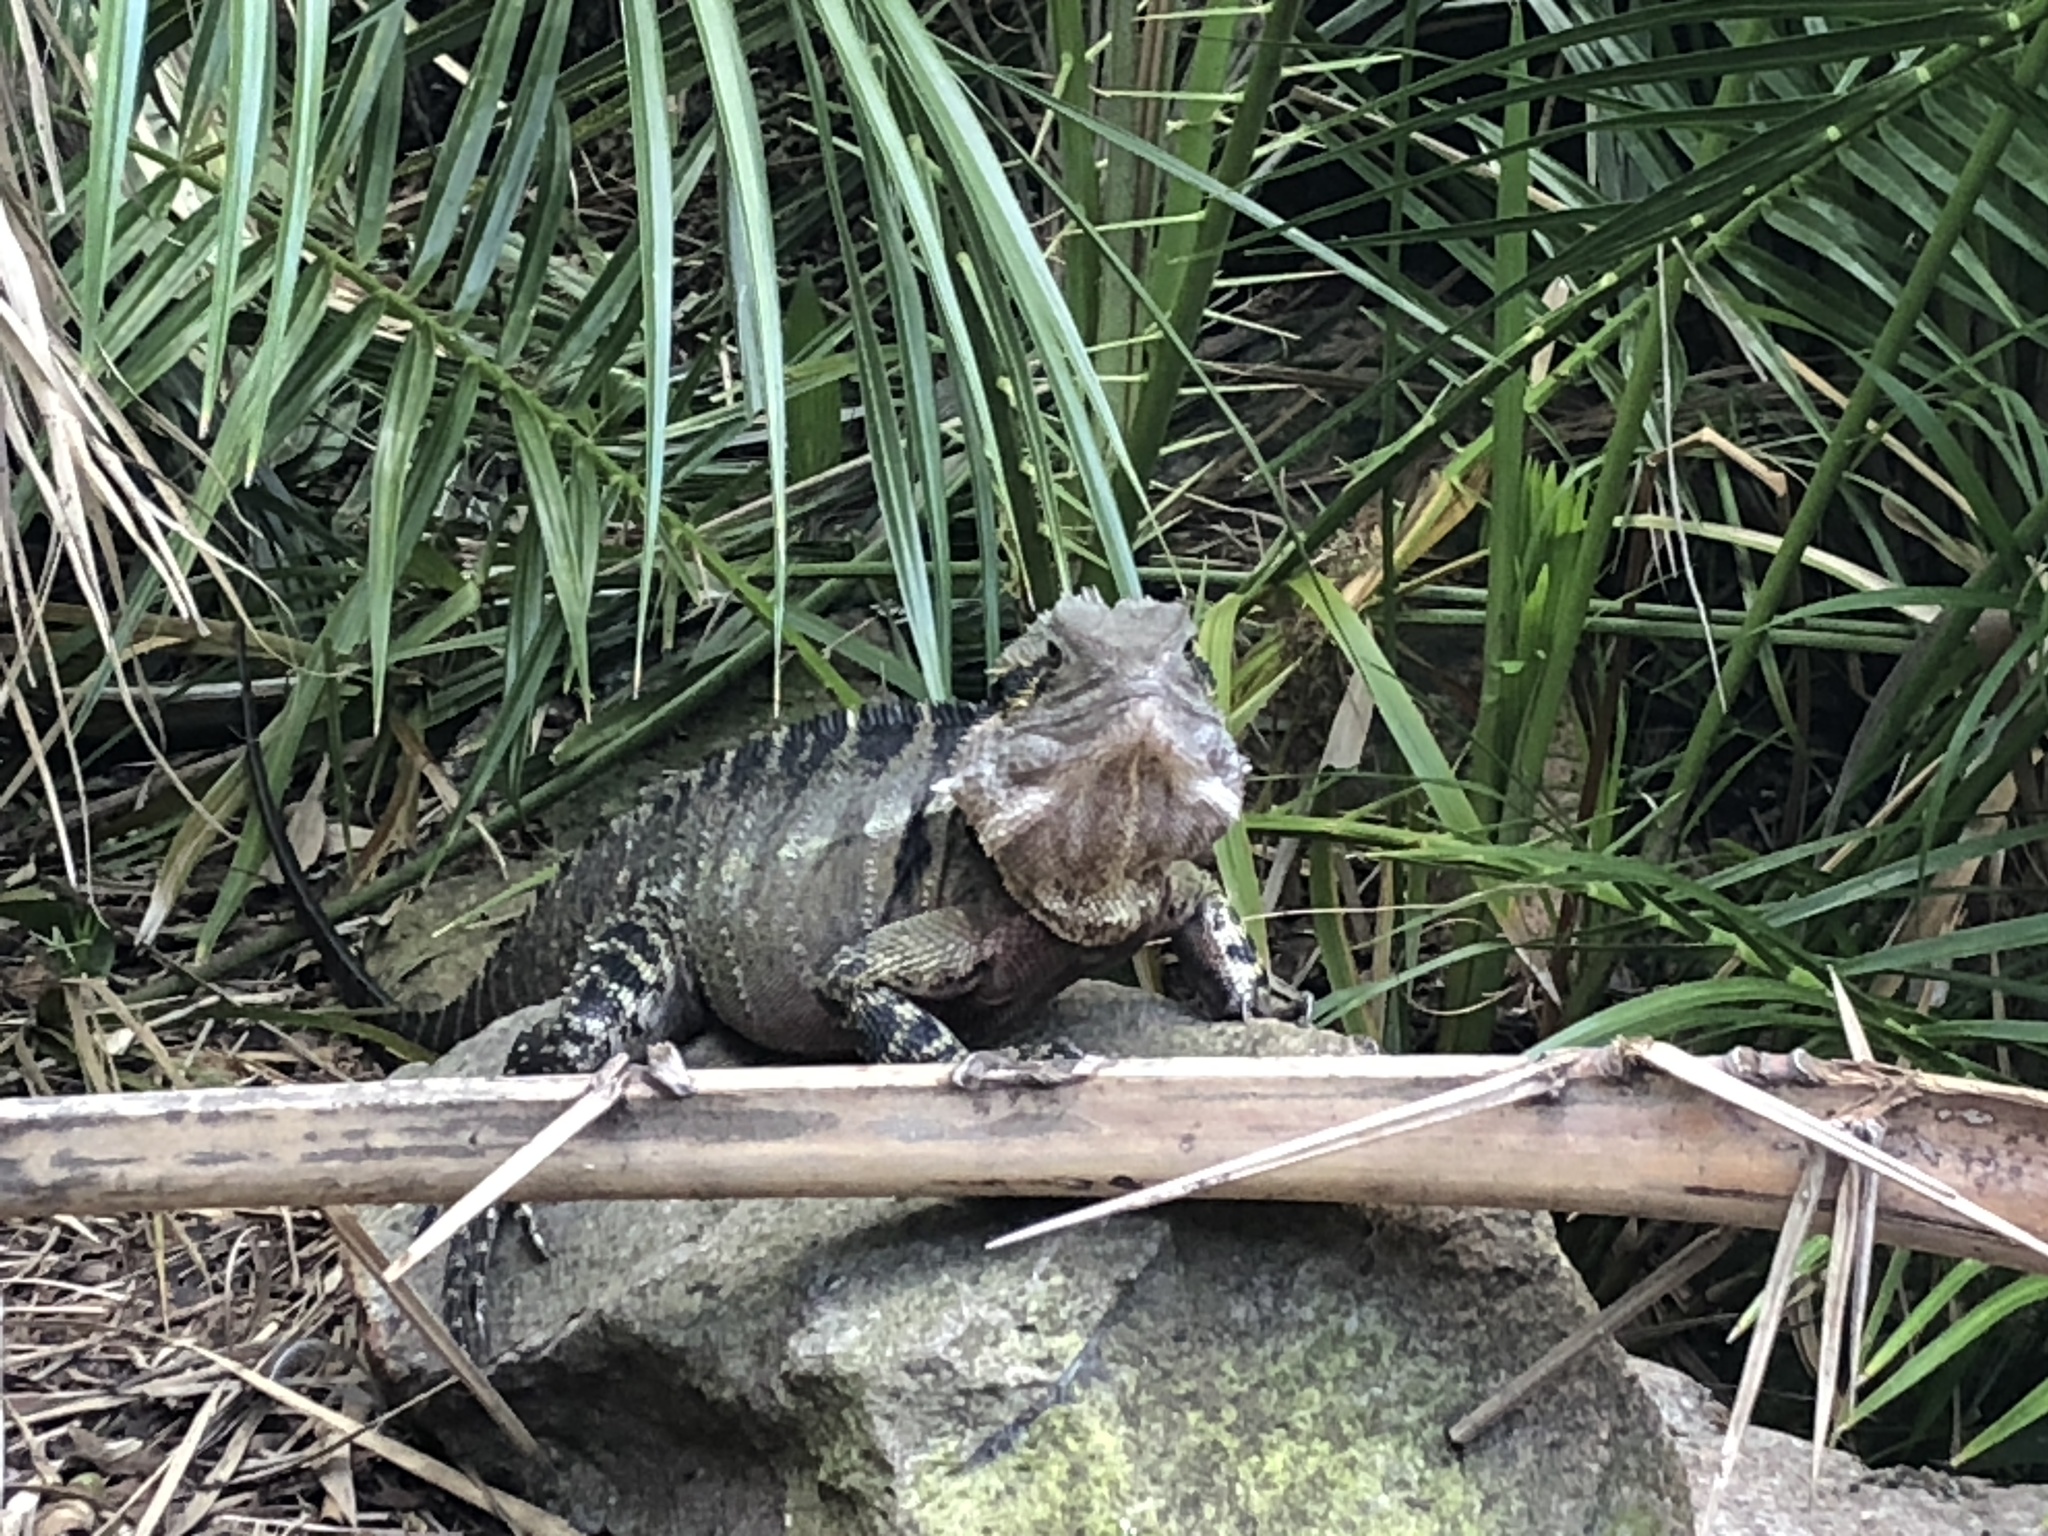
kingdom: Animalia
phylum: Chordata
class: Squamata
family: Agamidae
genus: Intellagama
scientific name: Intellagama lesueurii
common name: Eastern water dragon
